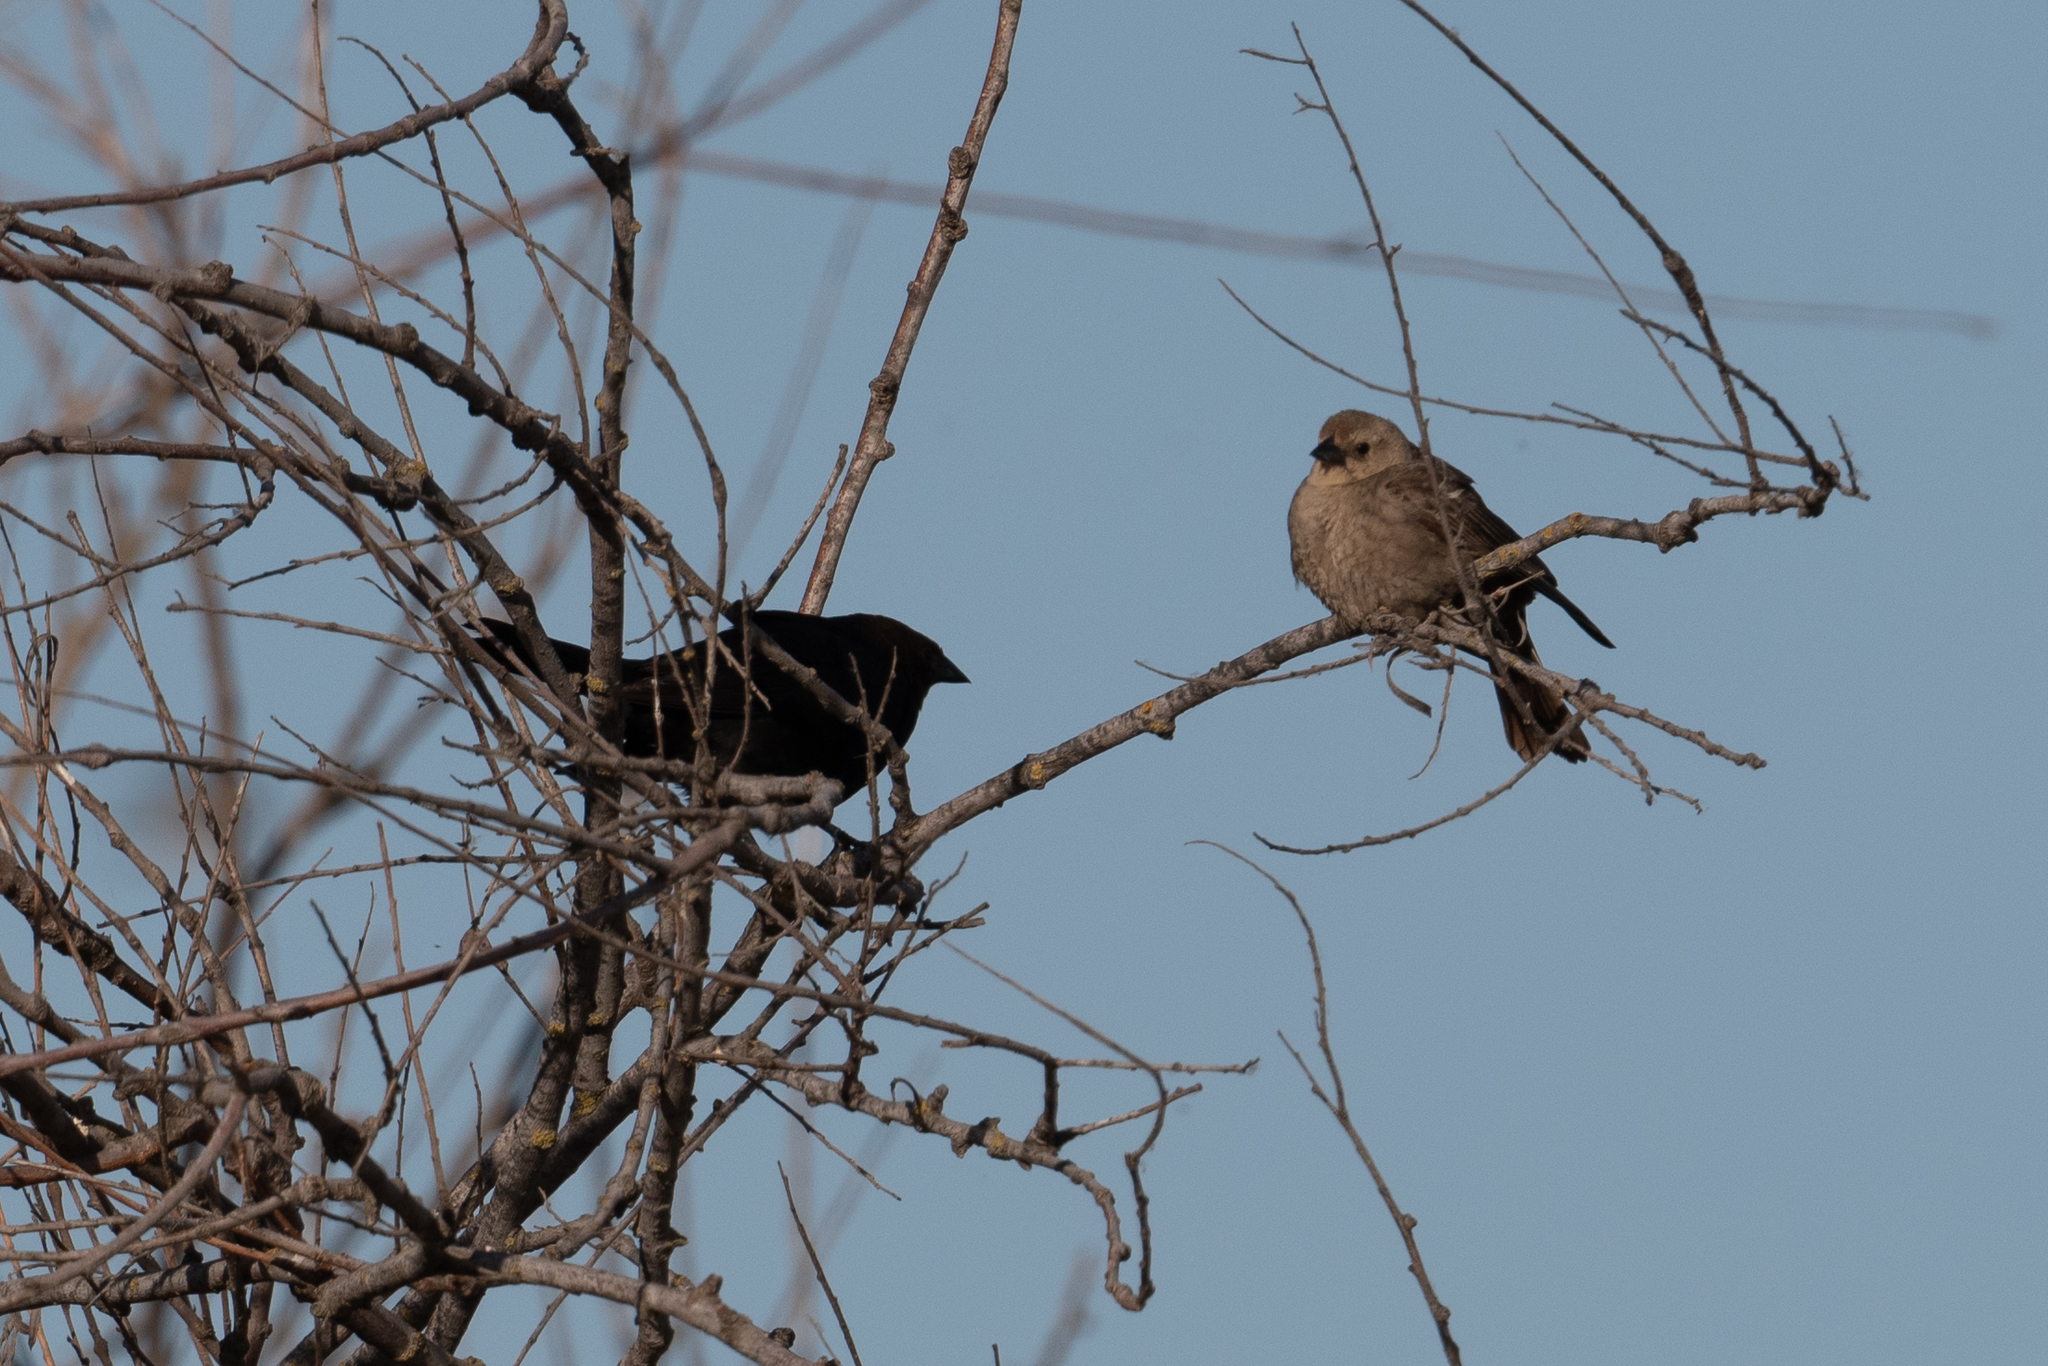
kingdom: Animalia
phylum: Chordata
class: Aves
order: Passeriformes
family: Icteridae
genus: Molothrus
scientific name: Molothrus ater
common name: Brown-headed cowbird
